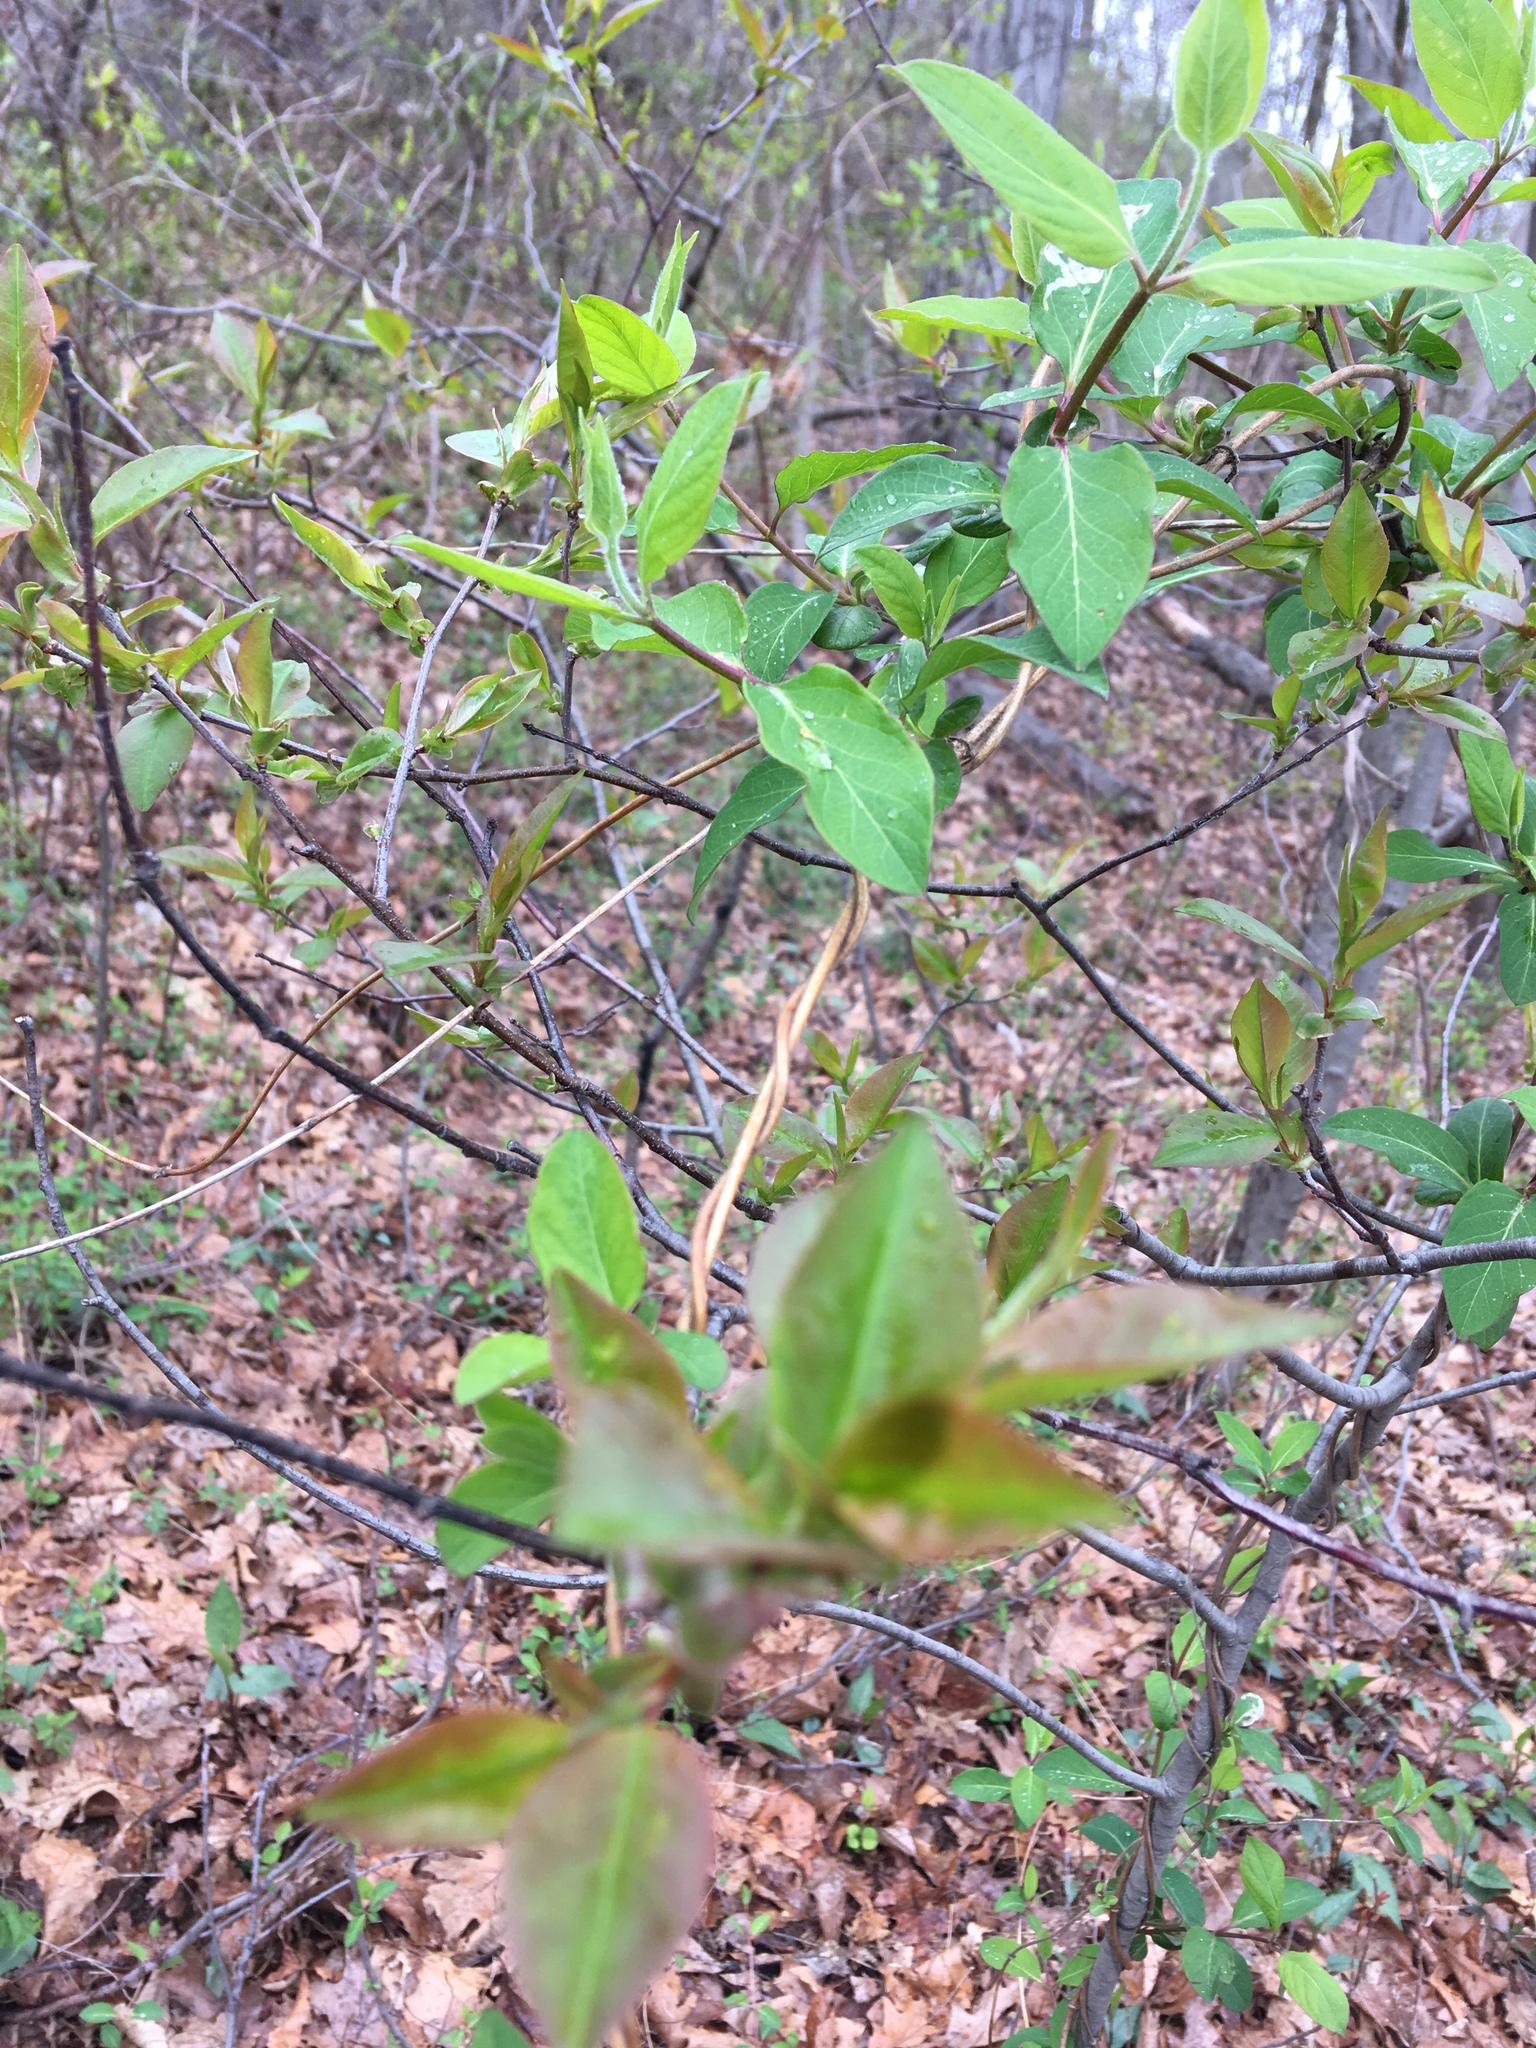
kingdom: Plantae
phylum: Tracheophyta
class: Magnoliopsida
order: Dipsacales
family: Caprifoliaceae
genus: Lonicera
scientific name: Lonicera japonica
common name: Japanese honeysuckle
